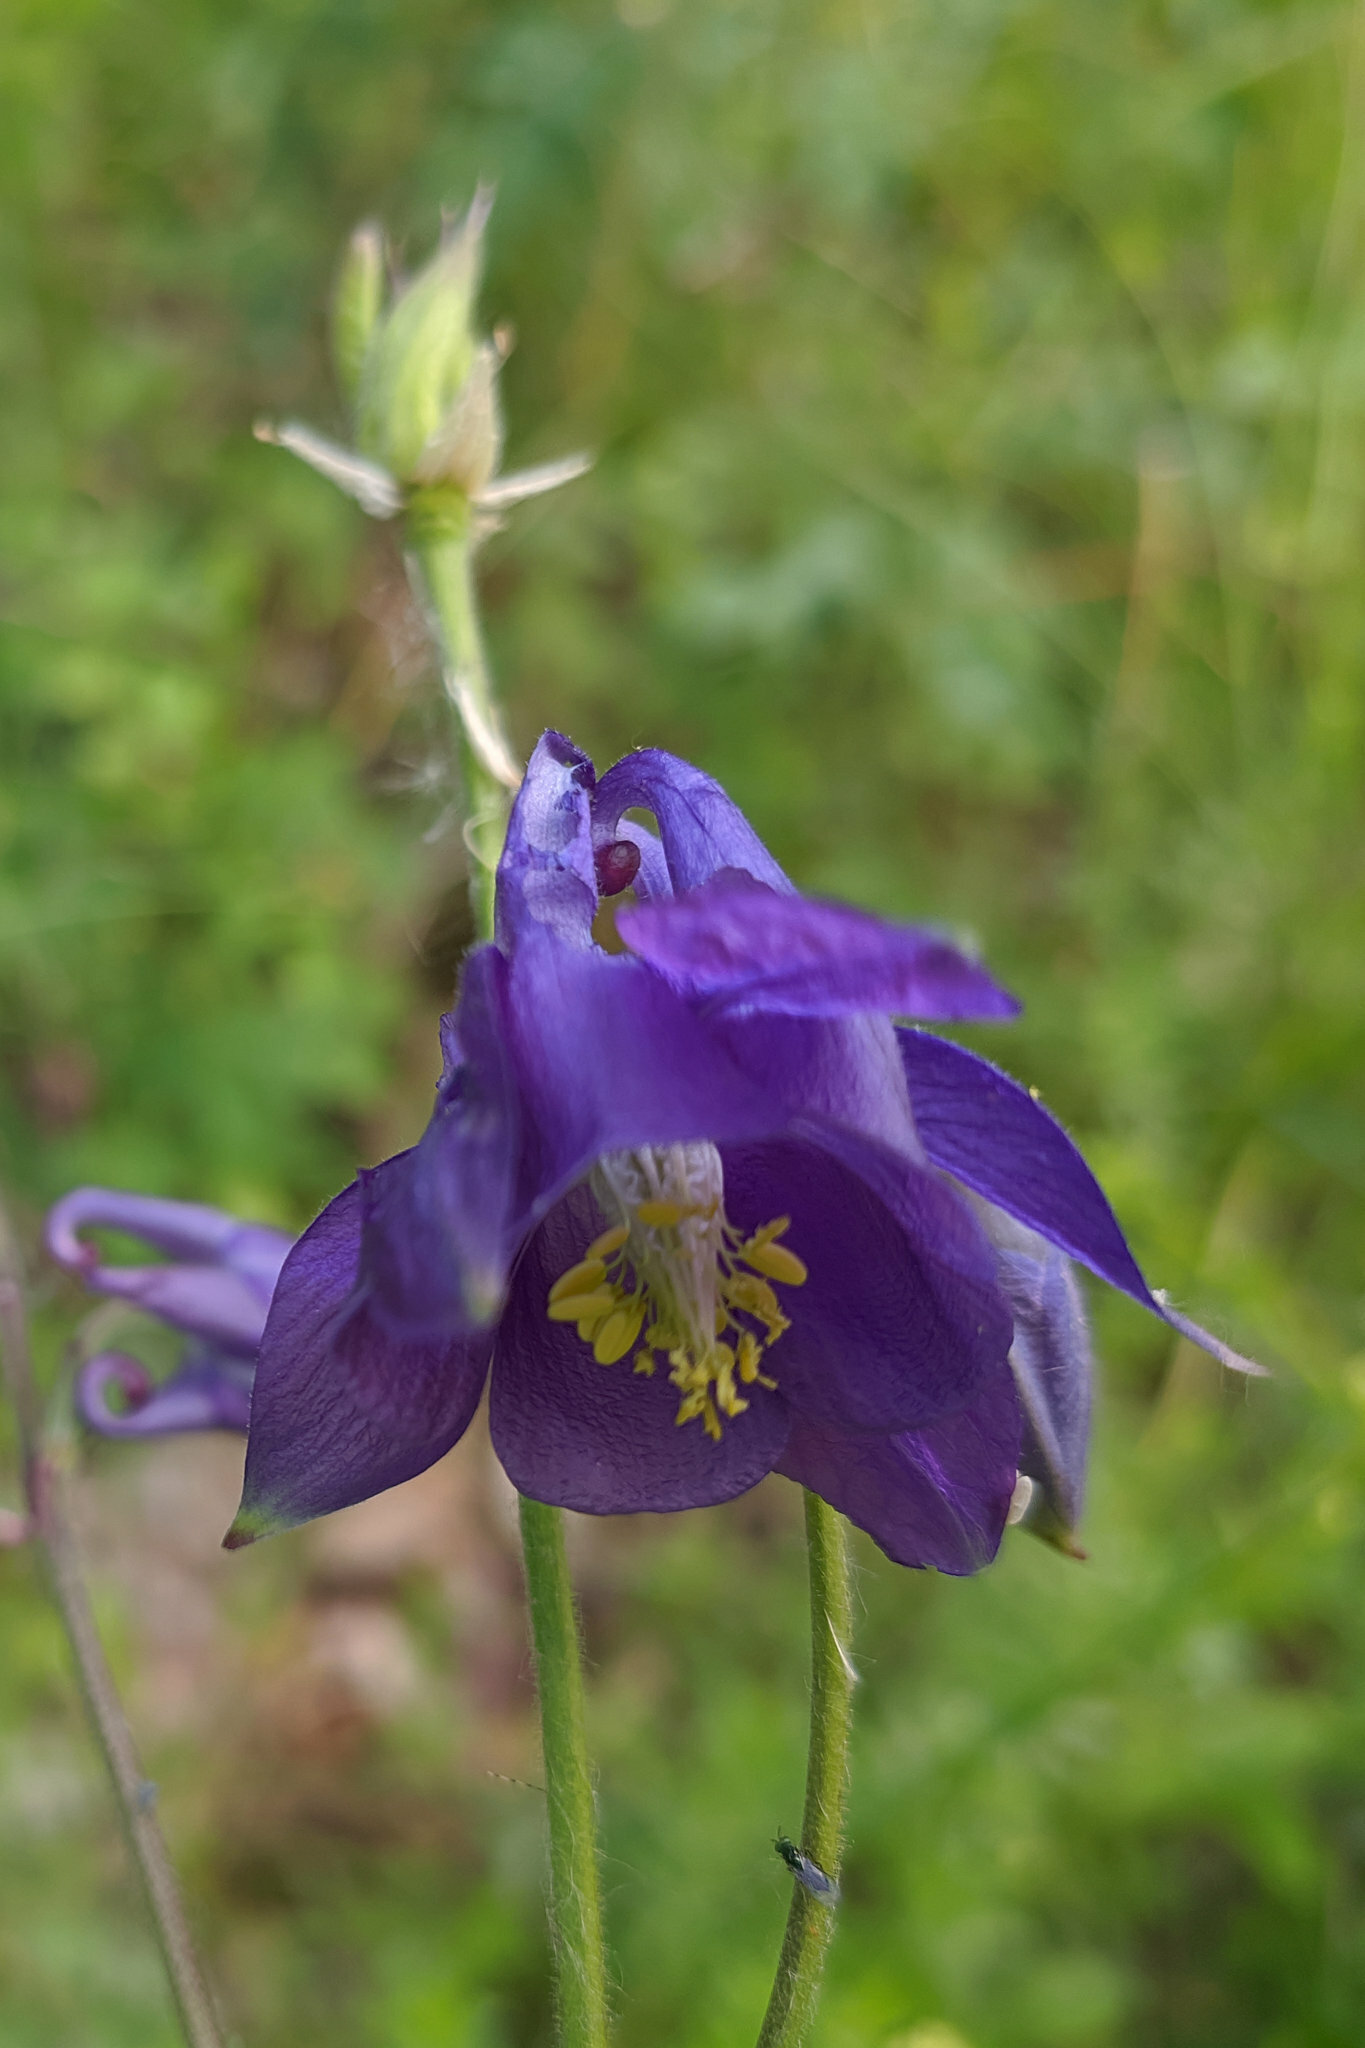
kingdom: Plantae
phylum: Tracheophyta
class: Magnoliopsida
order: Ranunculales
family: Ranunculaceae
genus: Aquilegia
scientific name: Aquilegia vulgaris
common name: Columbine
